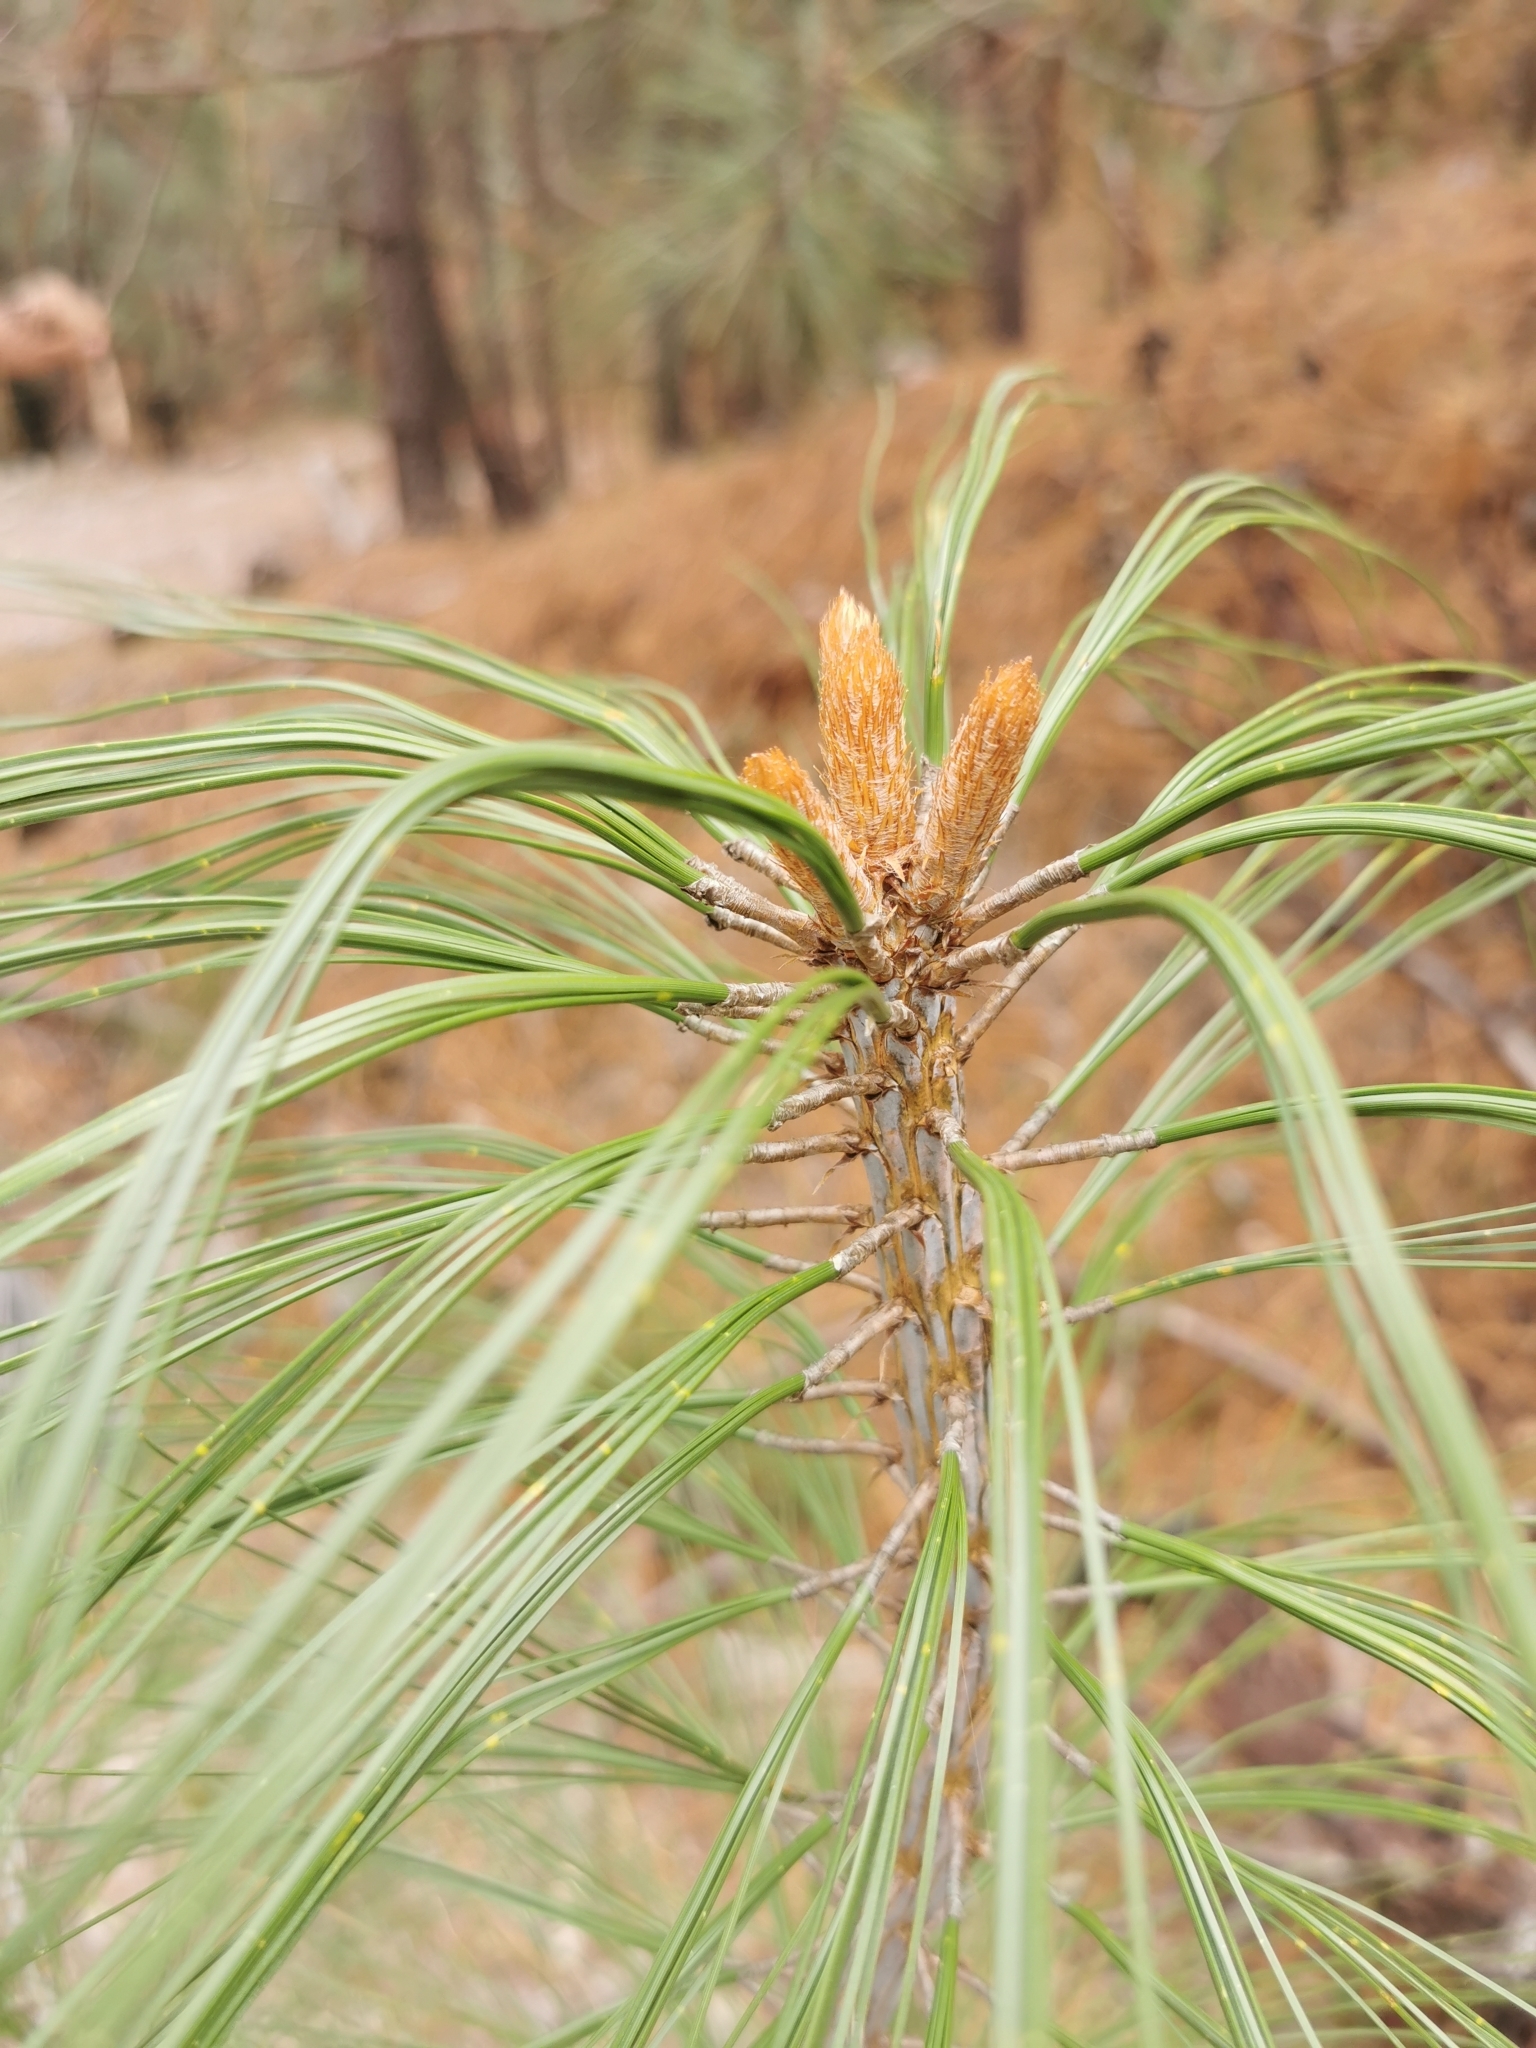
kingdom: Plantae
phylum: Tracheophyta
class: Pinopsida
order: Pinales
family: Pinaceae
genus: Pinus
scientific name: Pinus durangensis
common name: Durango pine
